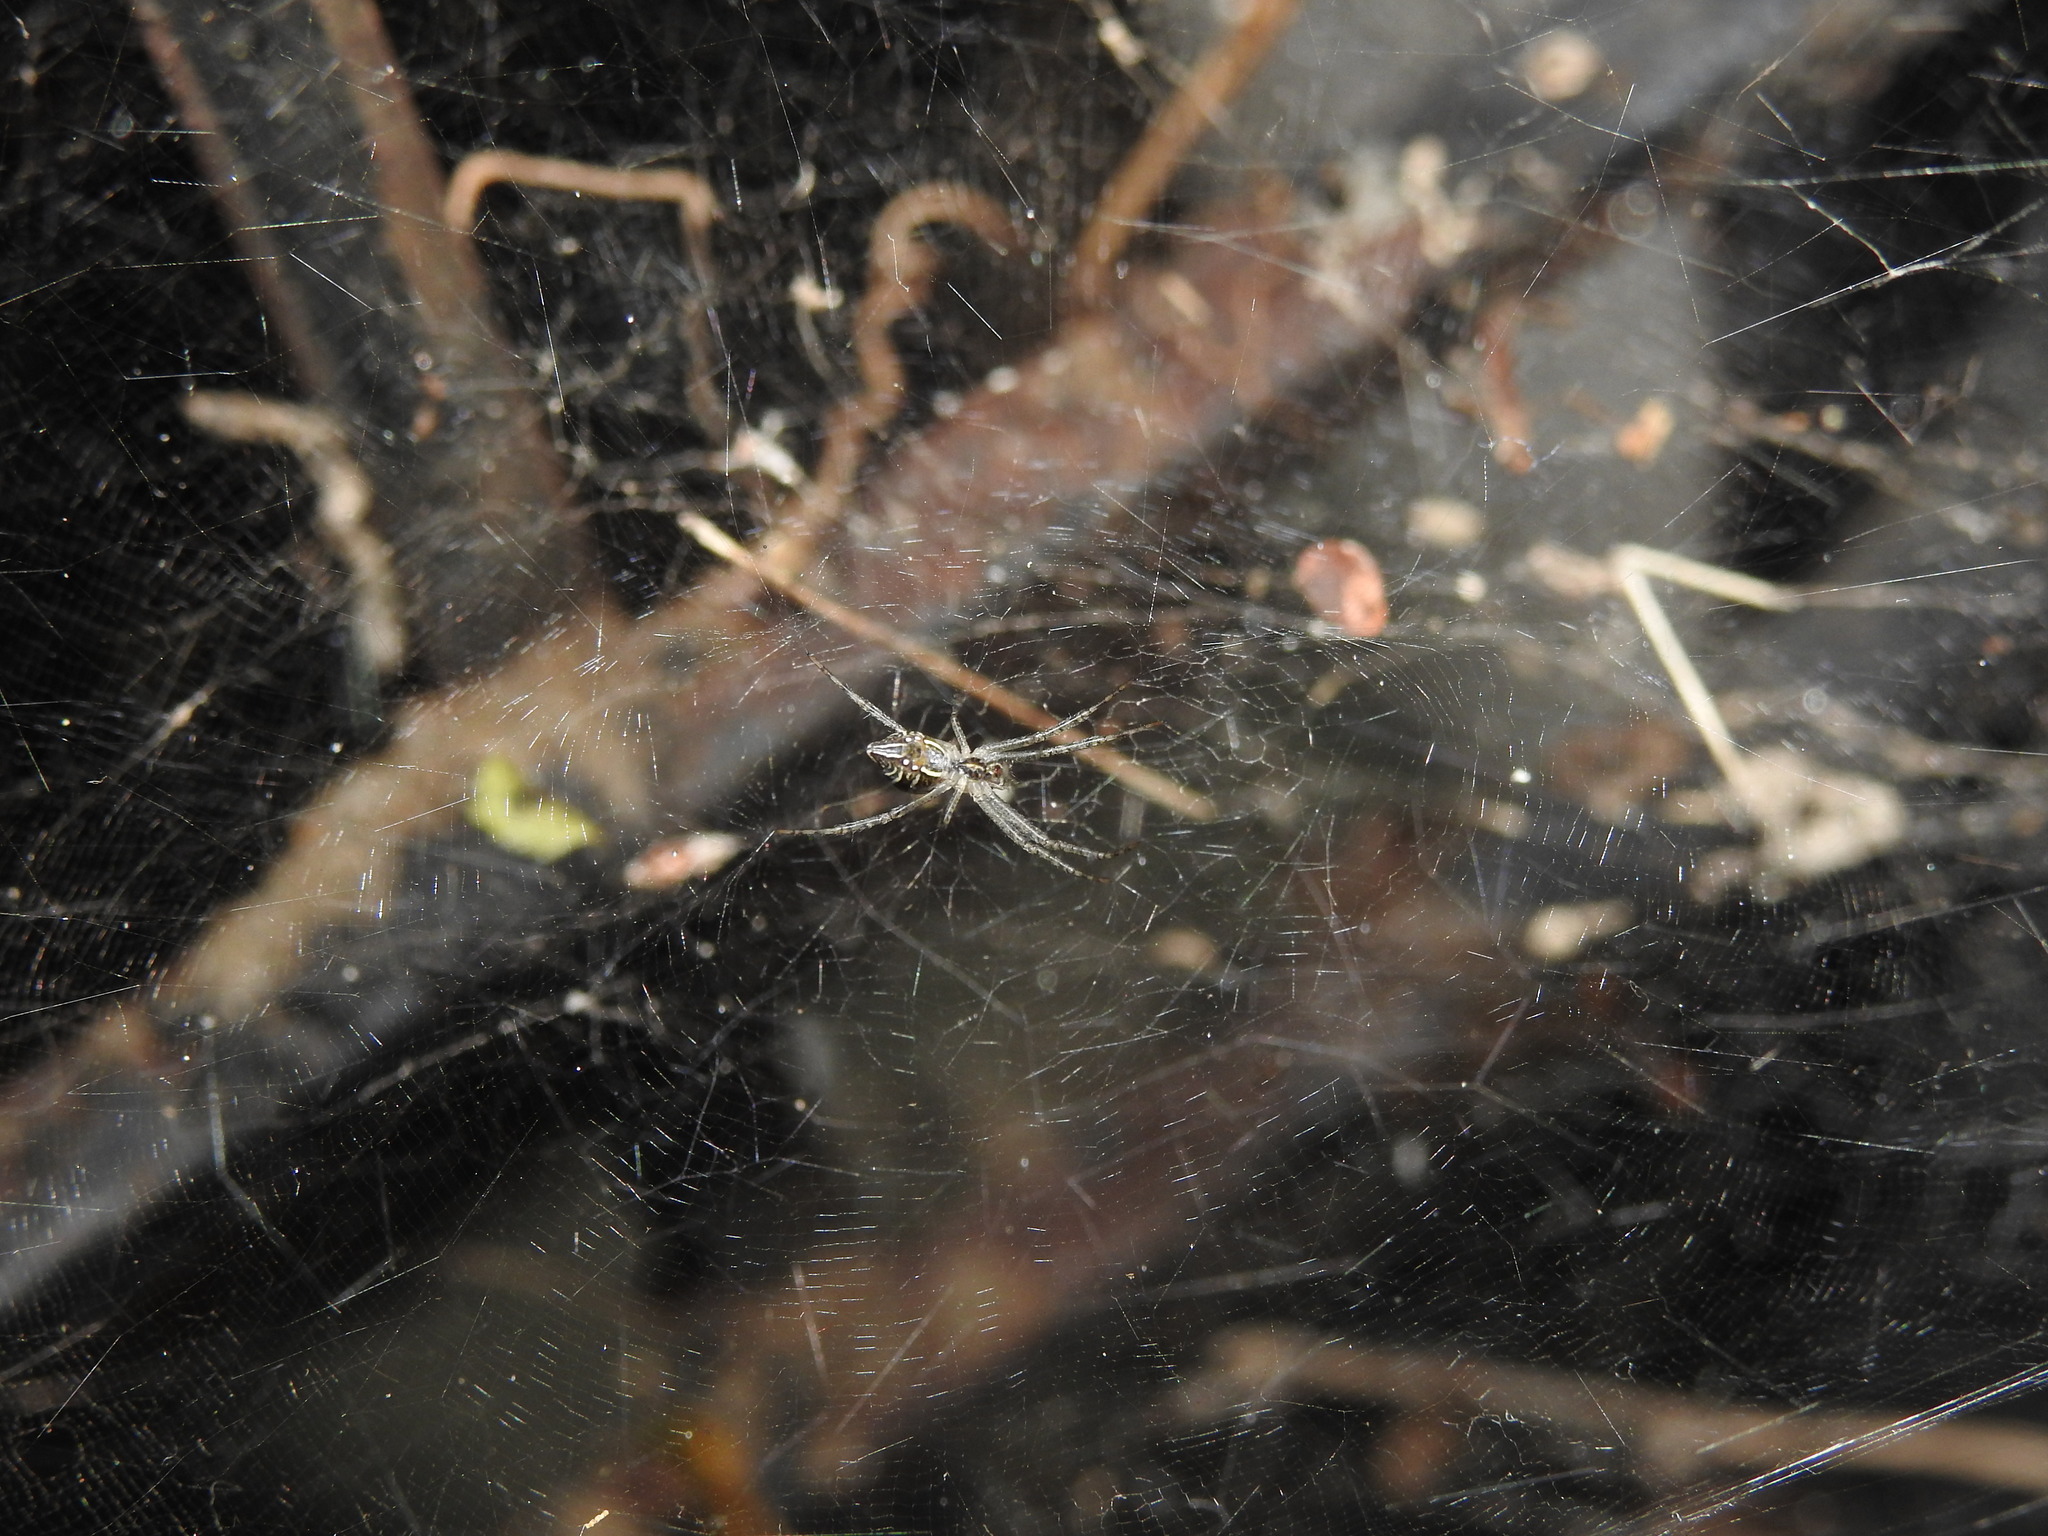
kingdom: Animalia
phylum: Arthropoda
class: Arachnida
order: Araneae
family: Araneidae
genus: Cyrtophora
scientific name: Cyrtophora cicatrosa
